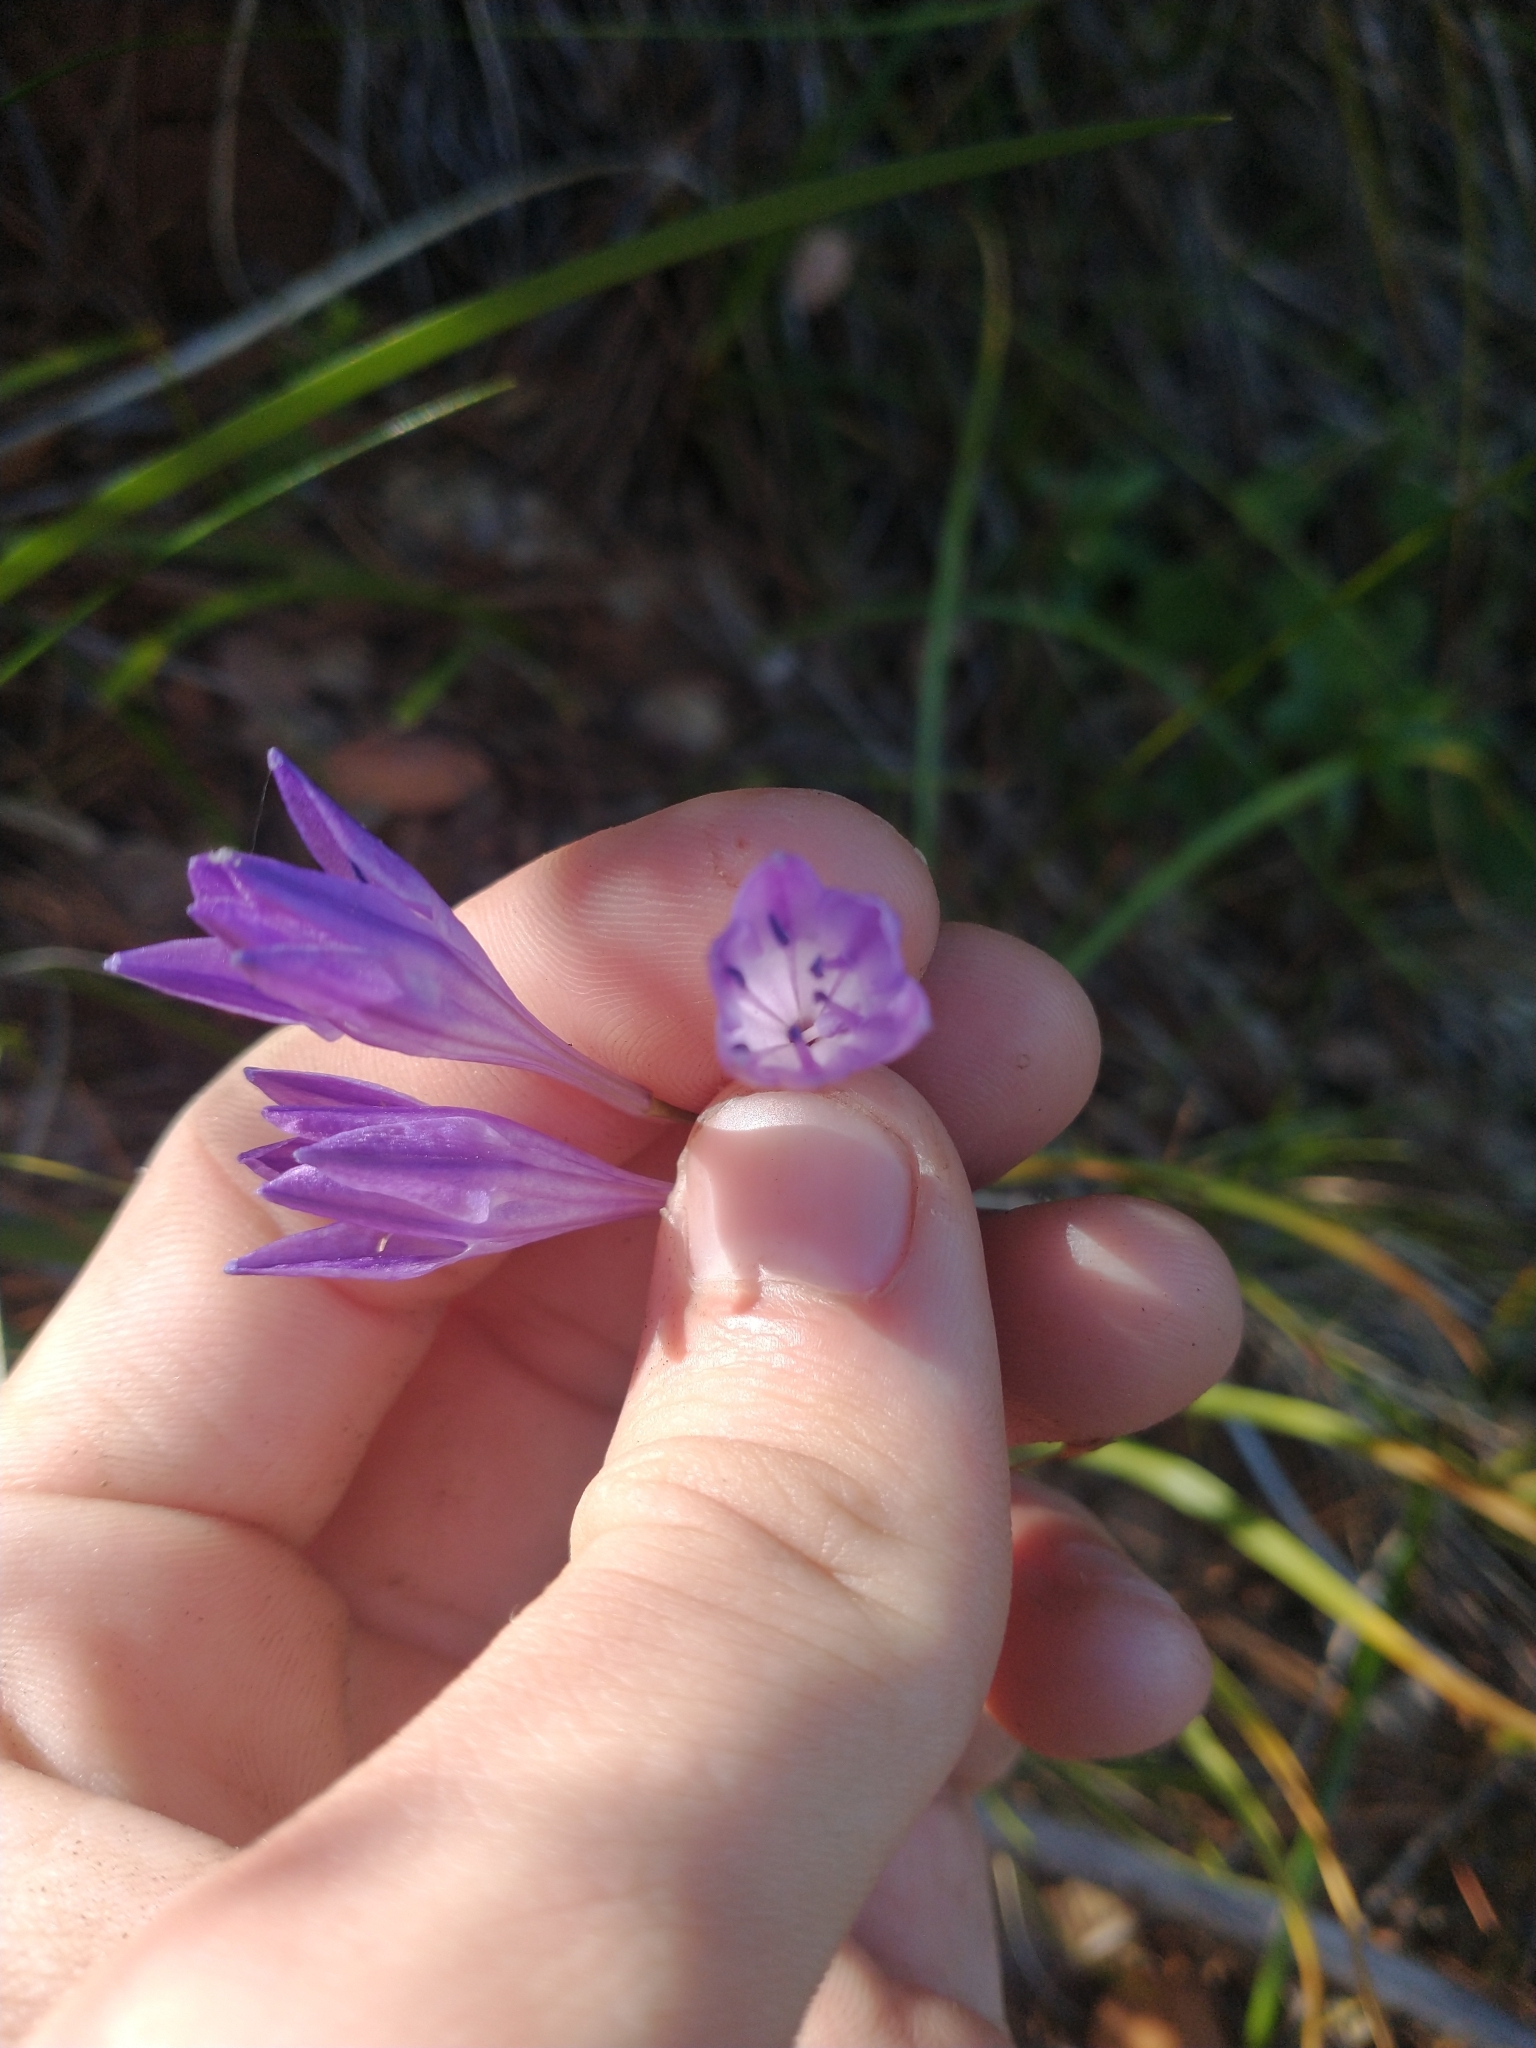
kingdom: Plantae
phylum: Tracheophyta
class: Liliopsida
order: Asparagales
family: Asparagaceae
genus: Triteleia
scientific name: Triteleia bridgesii
